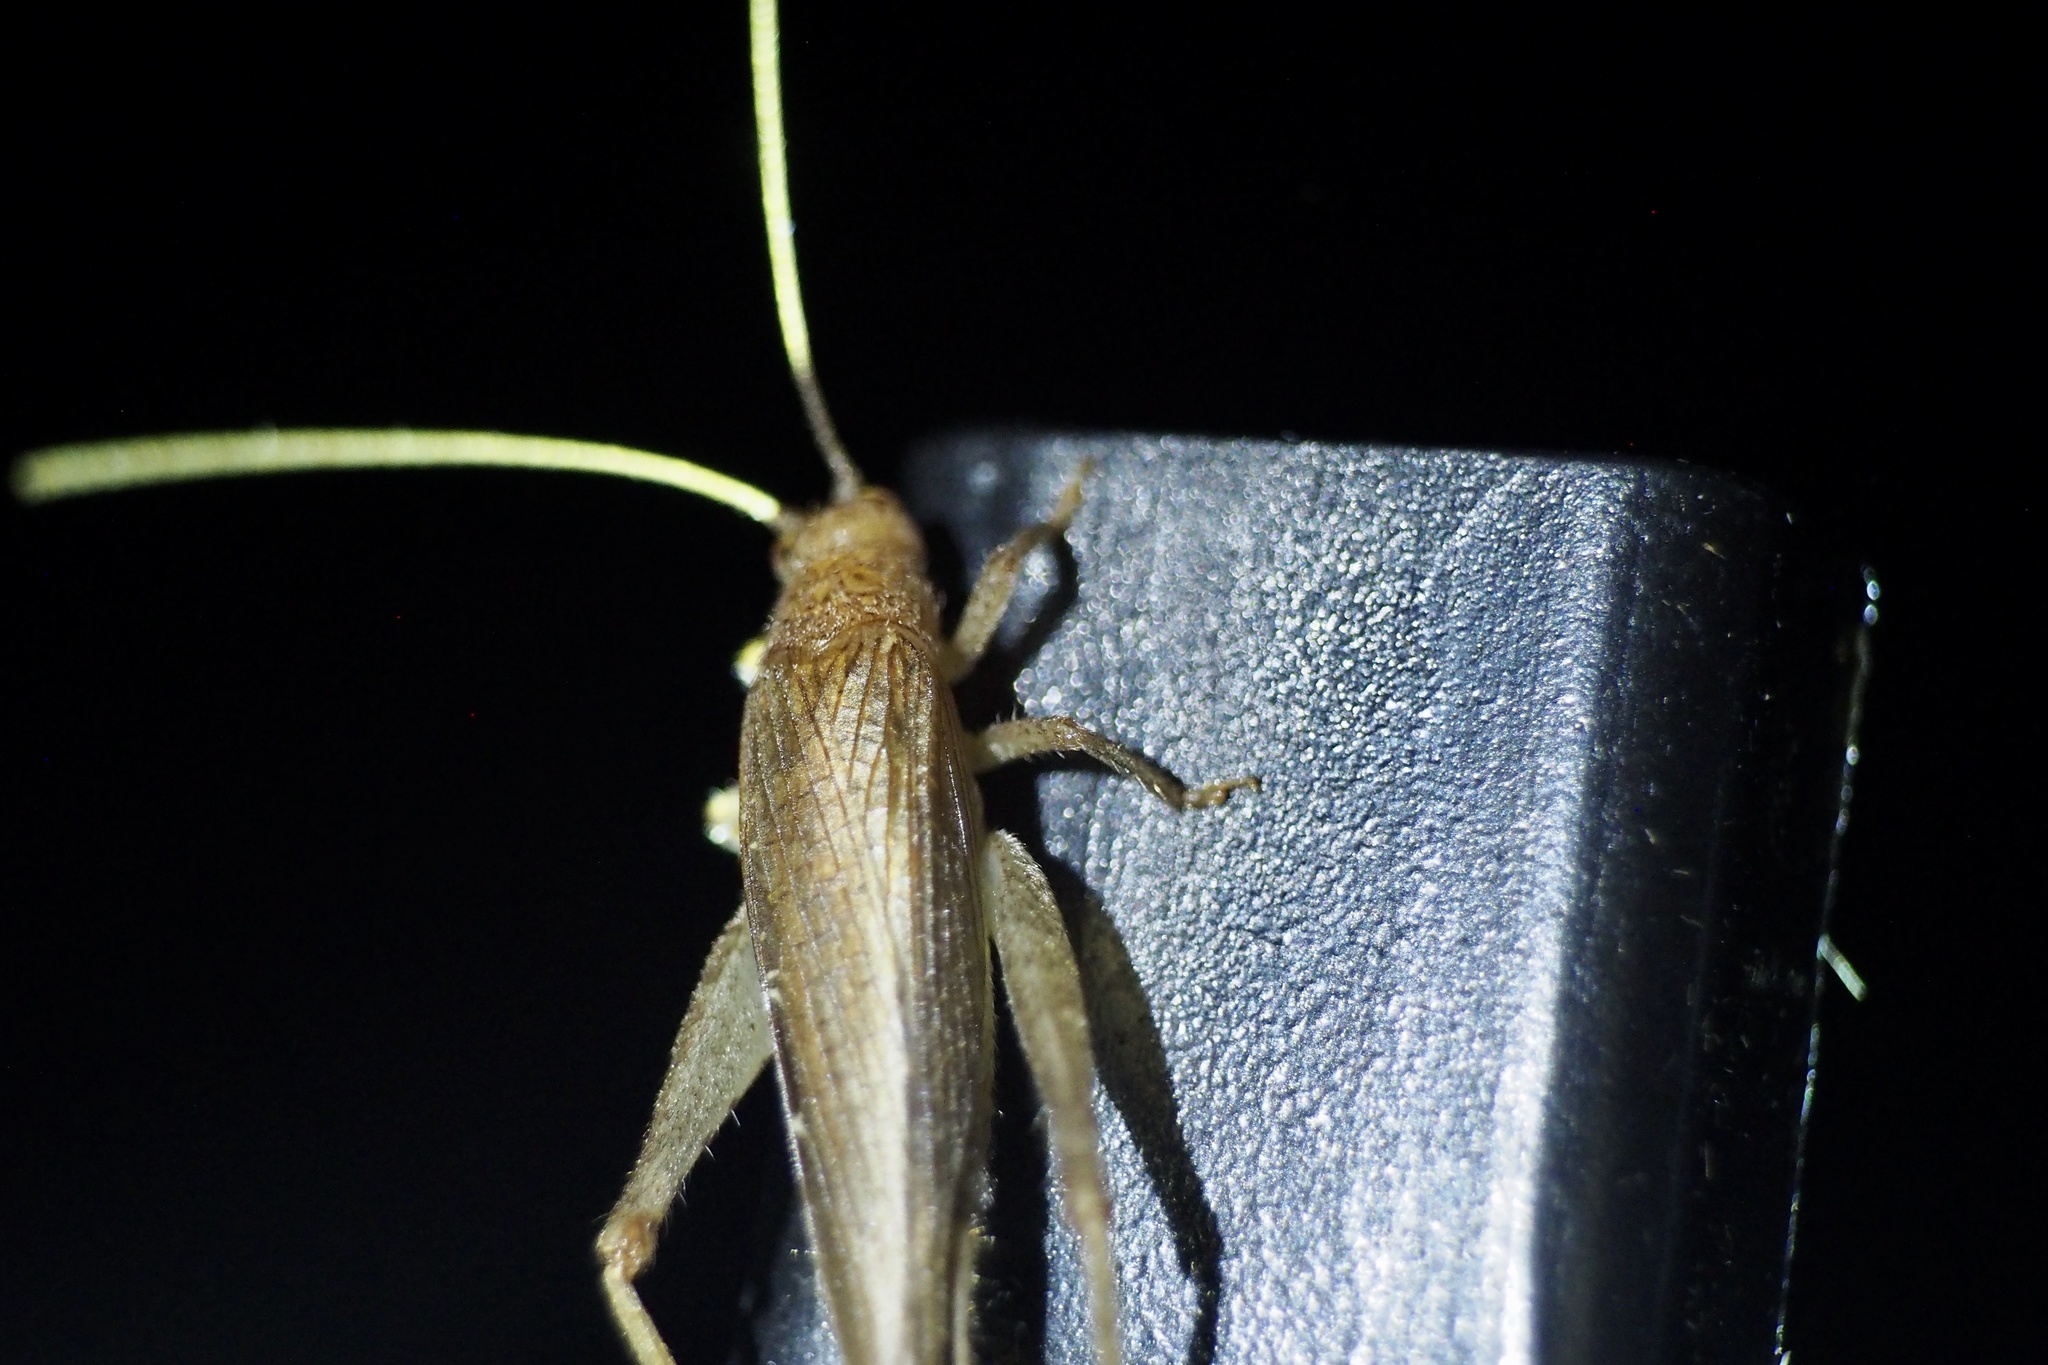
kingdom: Animalia
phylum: Arthropoda
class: Insecta
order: Orthoptera
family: Gryllidae
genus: Aphonoides
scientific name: Aphonoides japonicus
